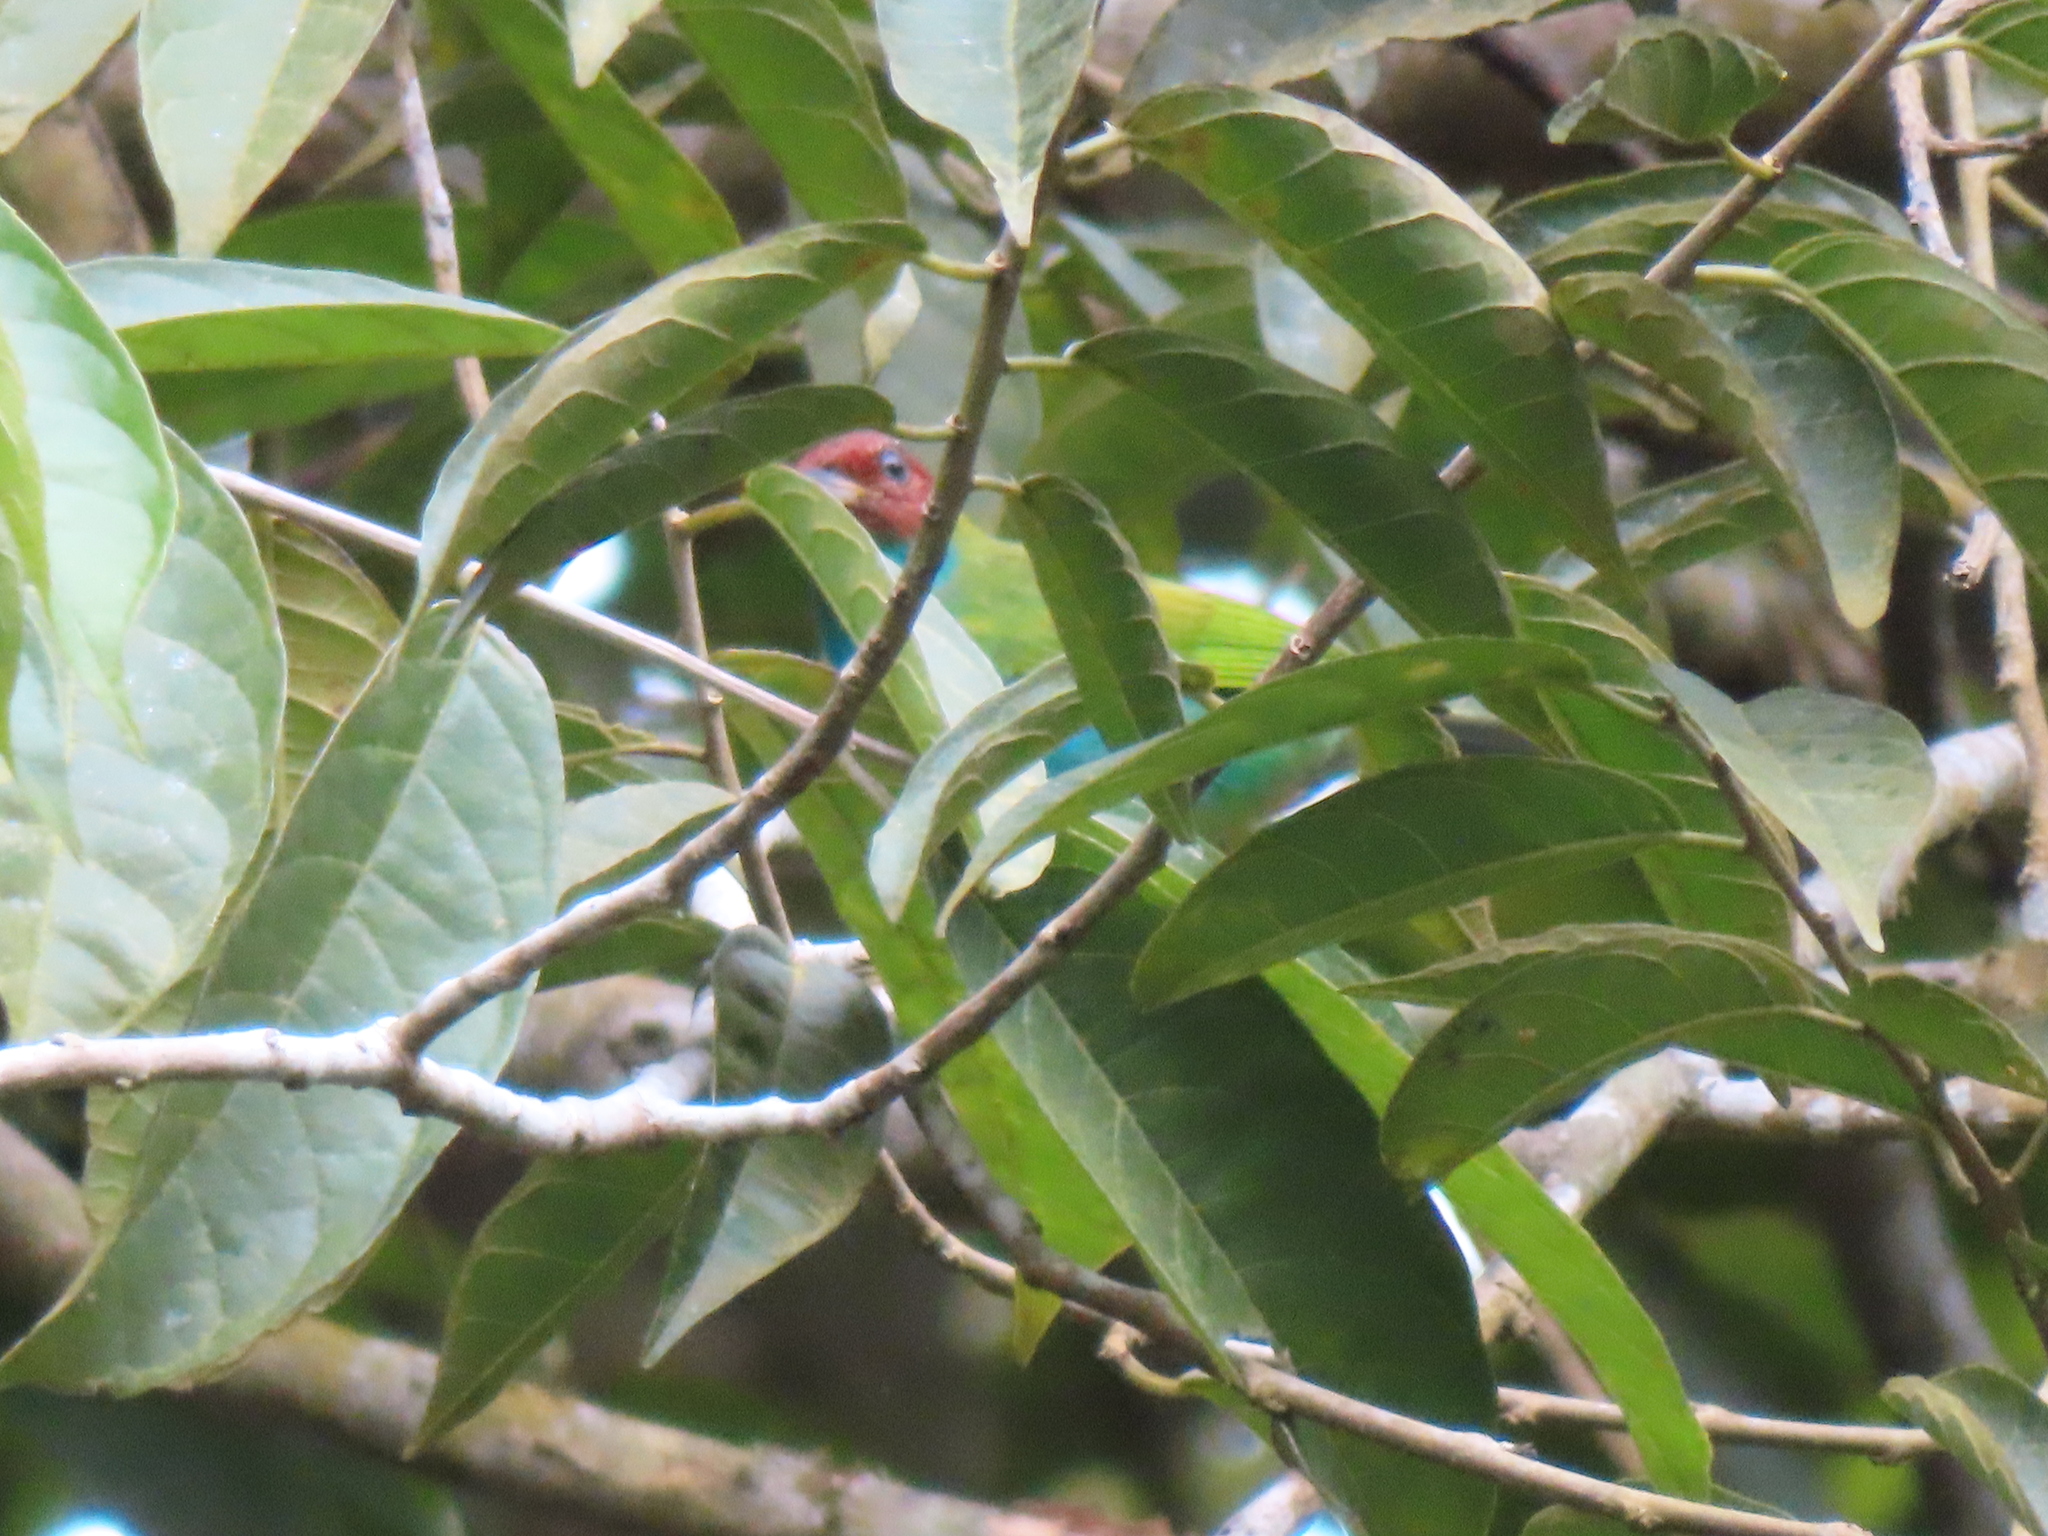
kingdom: Animalia
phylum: Chordata
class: Aves
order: Passeriformes
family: Thraupidae
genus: Tangara
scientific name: Tangara gyrola
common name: Bay-headed tanager
